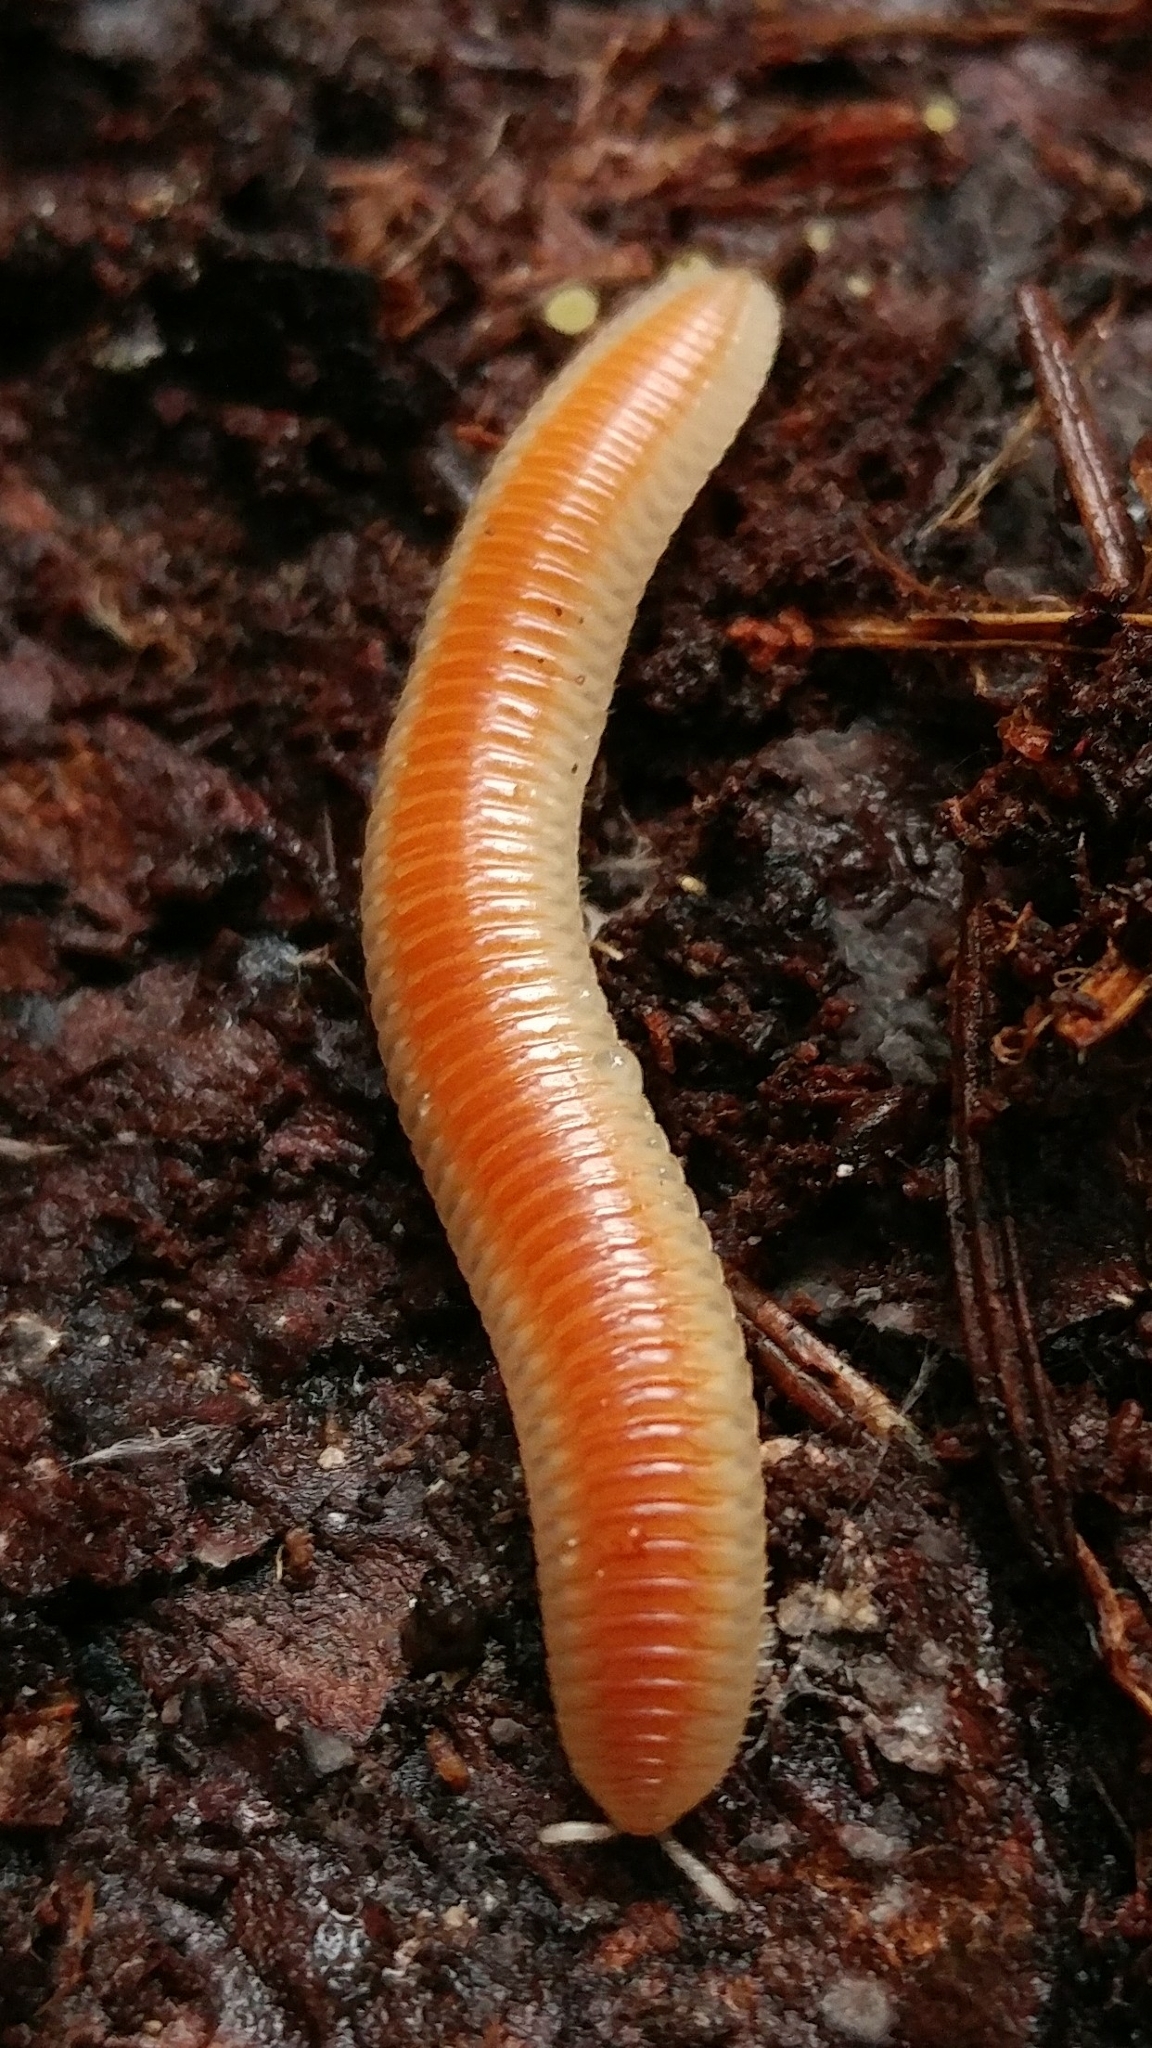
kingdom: Animalia
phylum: Arthropoda
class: Diplopoda
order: Polyzoniida
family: Polyzoniidae
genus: Buzonium
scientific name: Buzonium crassipes
